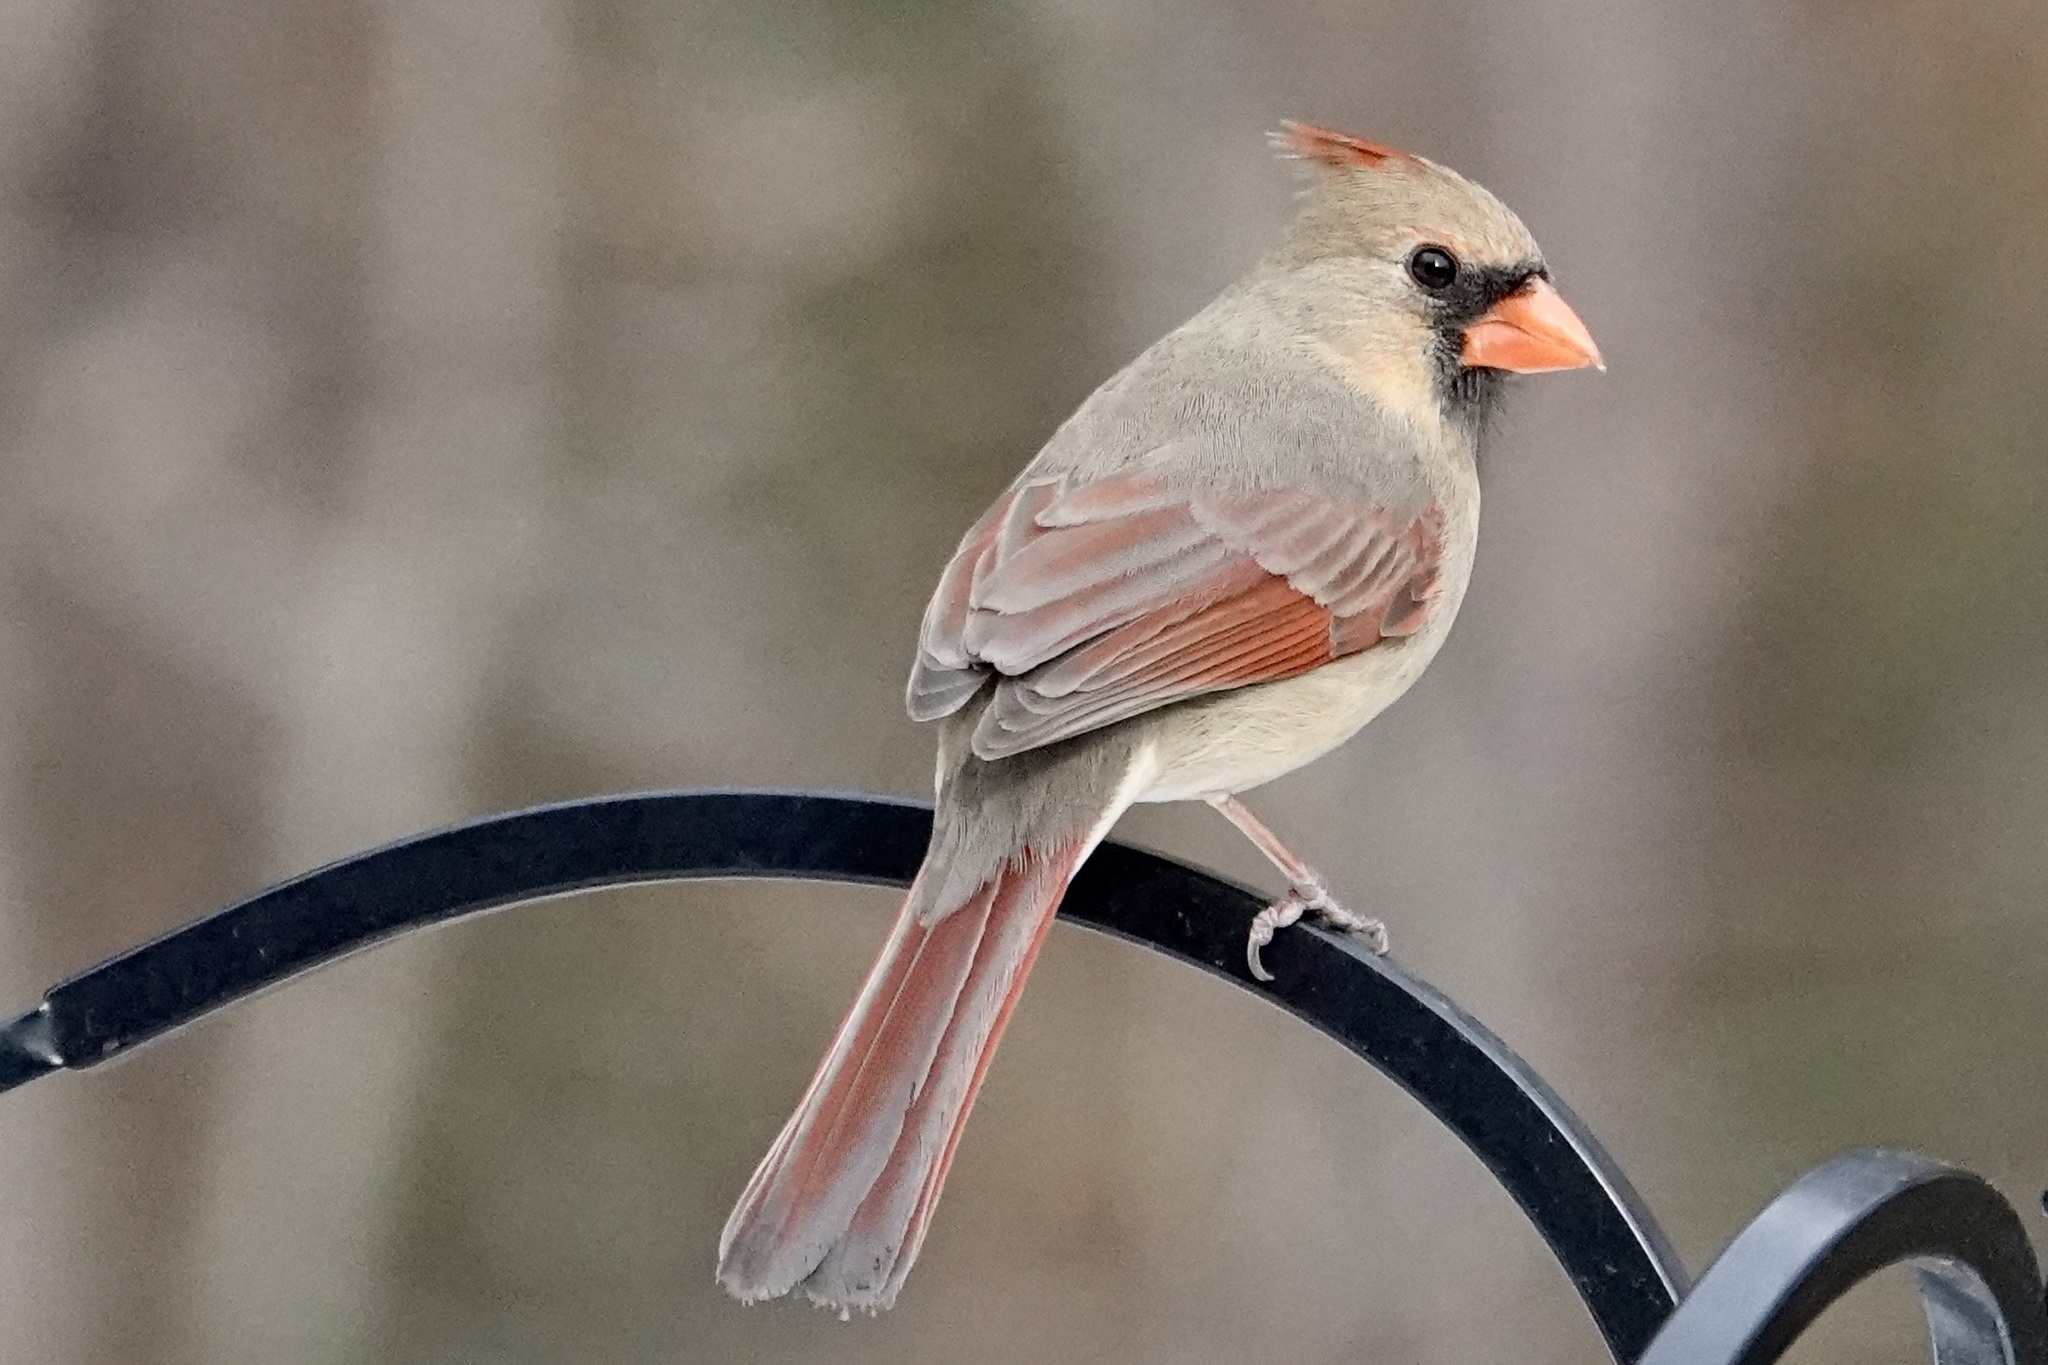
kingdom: Animalia
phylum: Chordata
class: Aves
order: Passeriformes
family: Cardinalidae
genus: Cardinalis
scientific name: Cardinalis cardinalis
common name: Northern cardinal
